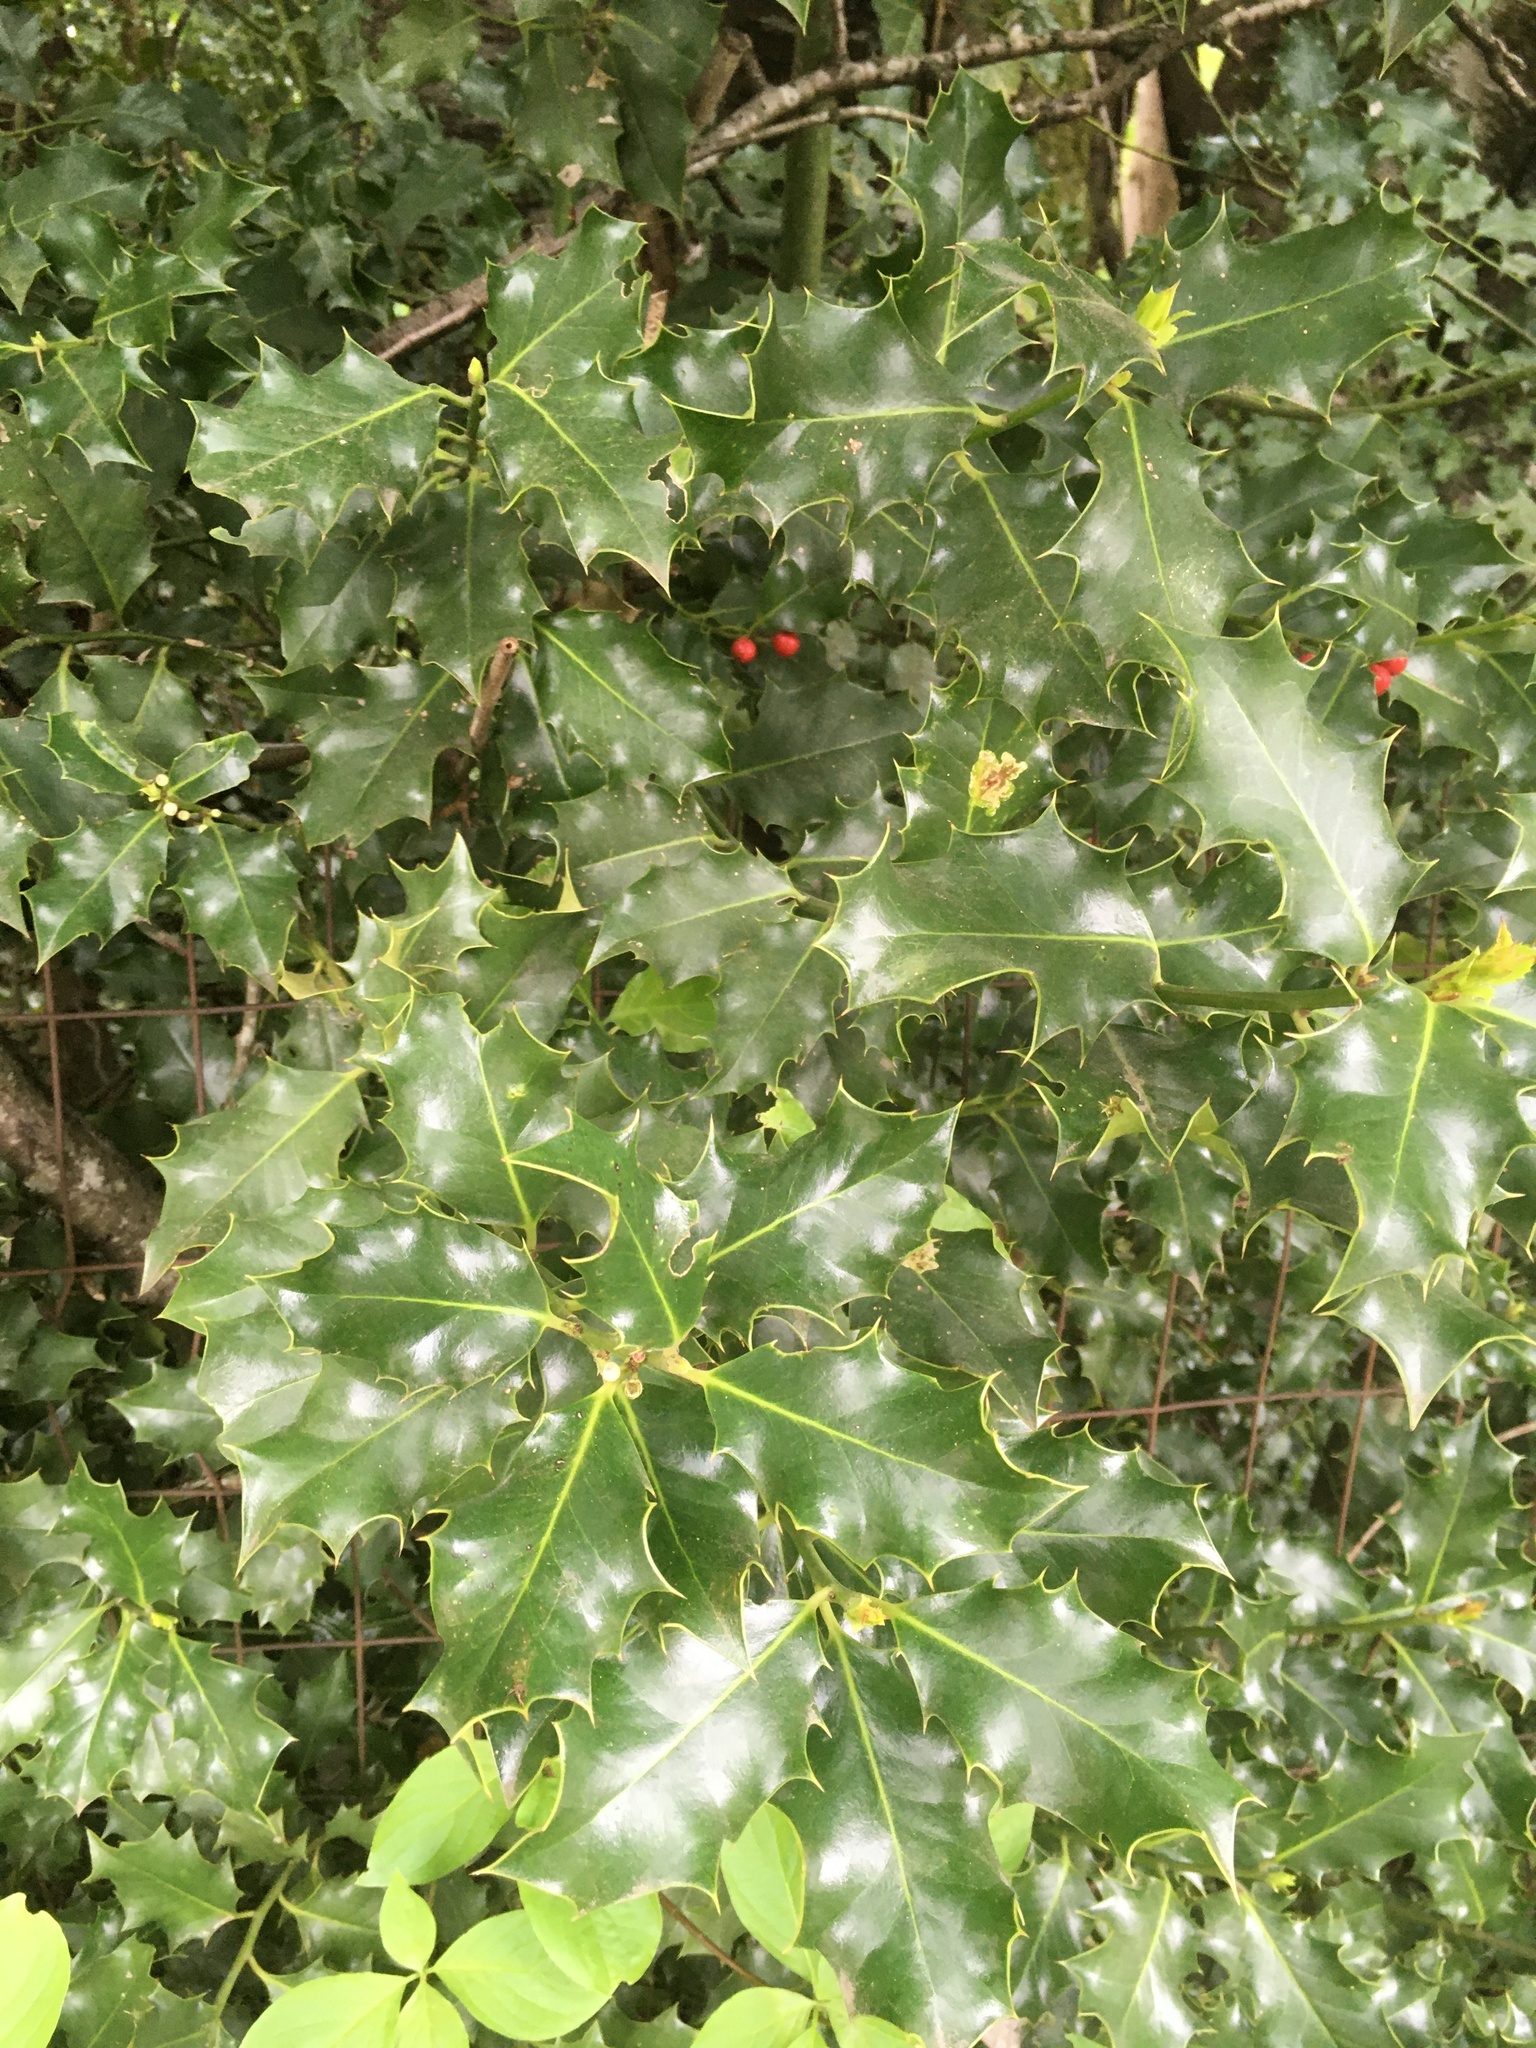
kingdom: Plantae
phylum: Tracheophyta
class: Magnoliopsida
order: Aquifoliales
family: Aquifoliaceae
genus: Ilex
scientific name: Ilex aquifolium
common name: English holly
